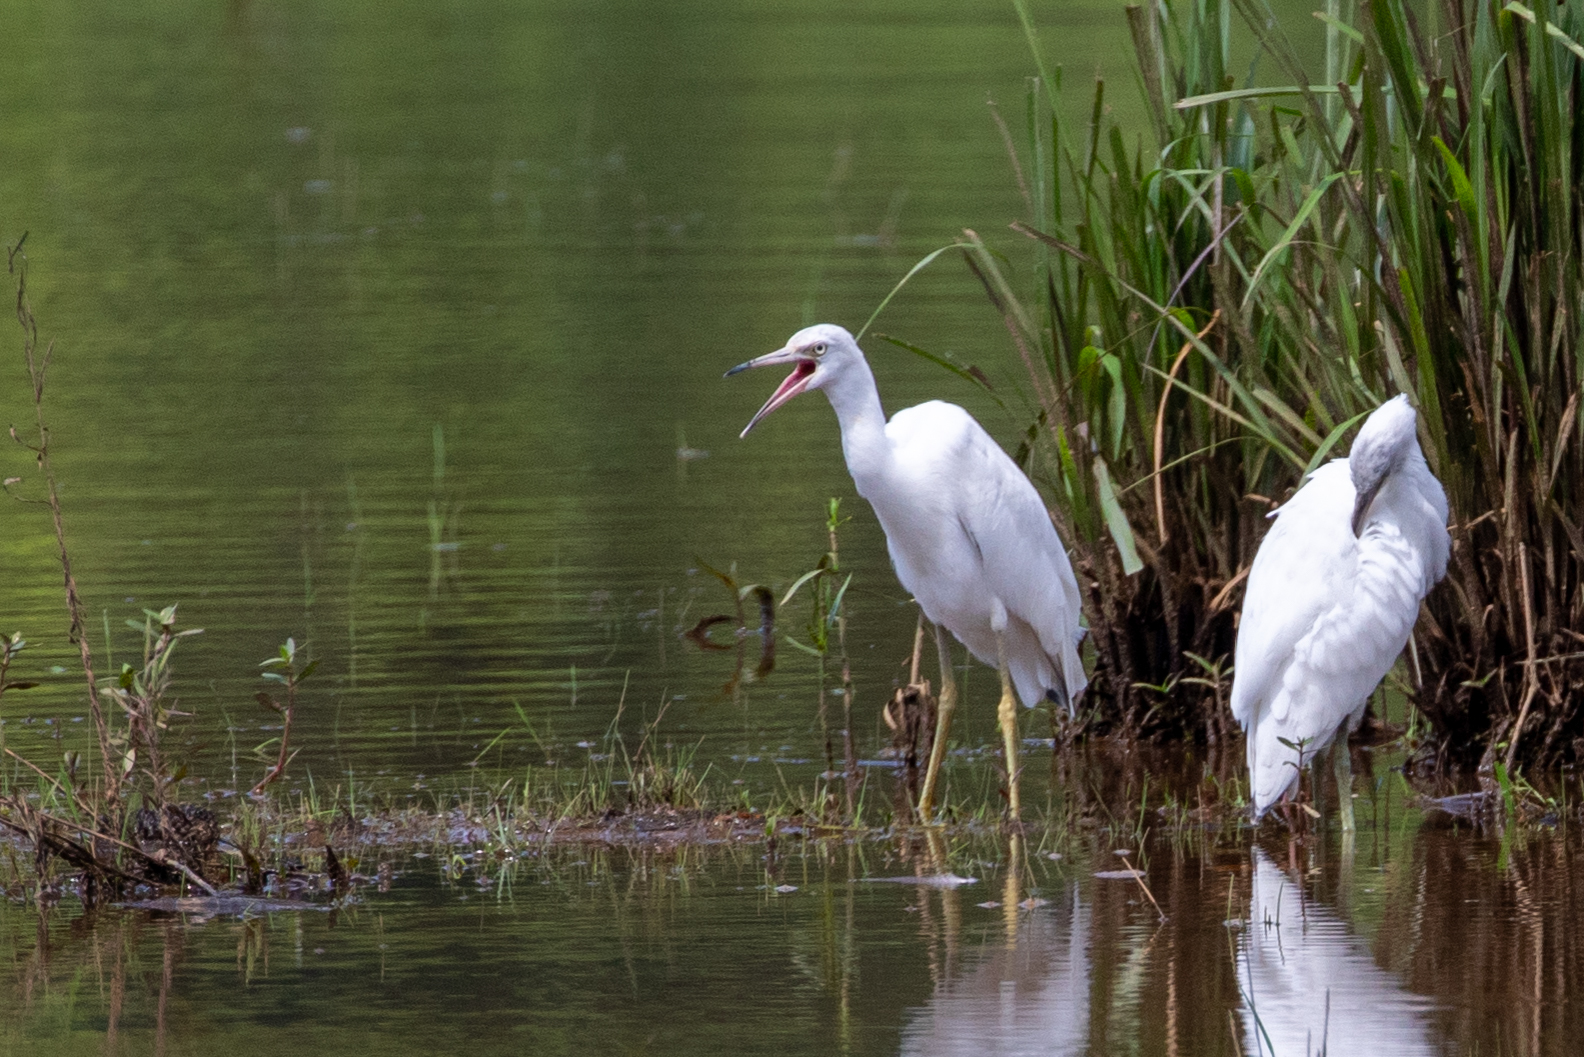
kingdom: Animalia
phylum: Chordata
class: Aves
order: Pelecaniformes
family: Ardeidae
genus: Egretta
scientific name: Egretta caerulea
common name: Little blue heron
